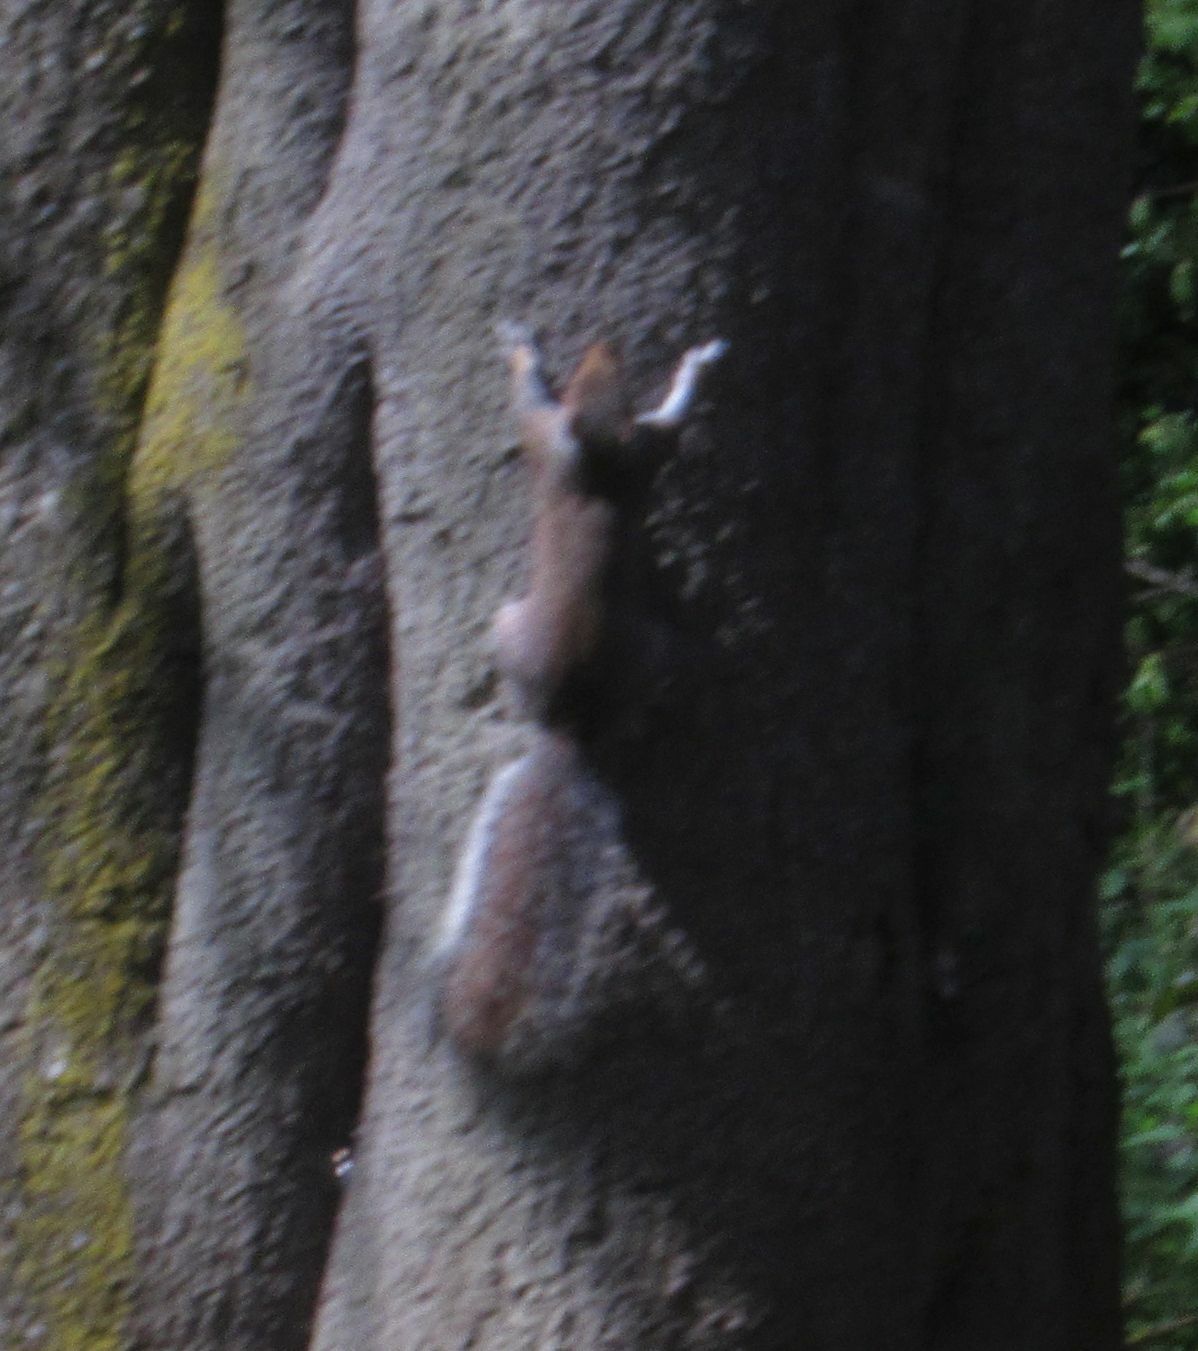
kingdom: Animalia
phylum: Chordata
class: Mammalia
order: Rodentia
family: Sciuridae
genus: Sciurus
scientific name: Sciurus carolinensis
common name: Eastern gray squirrel
